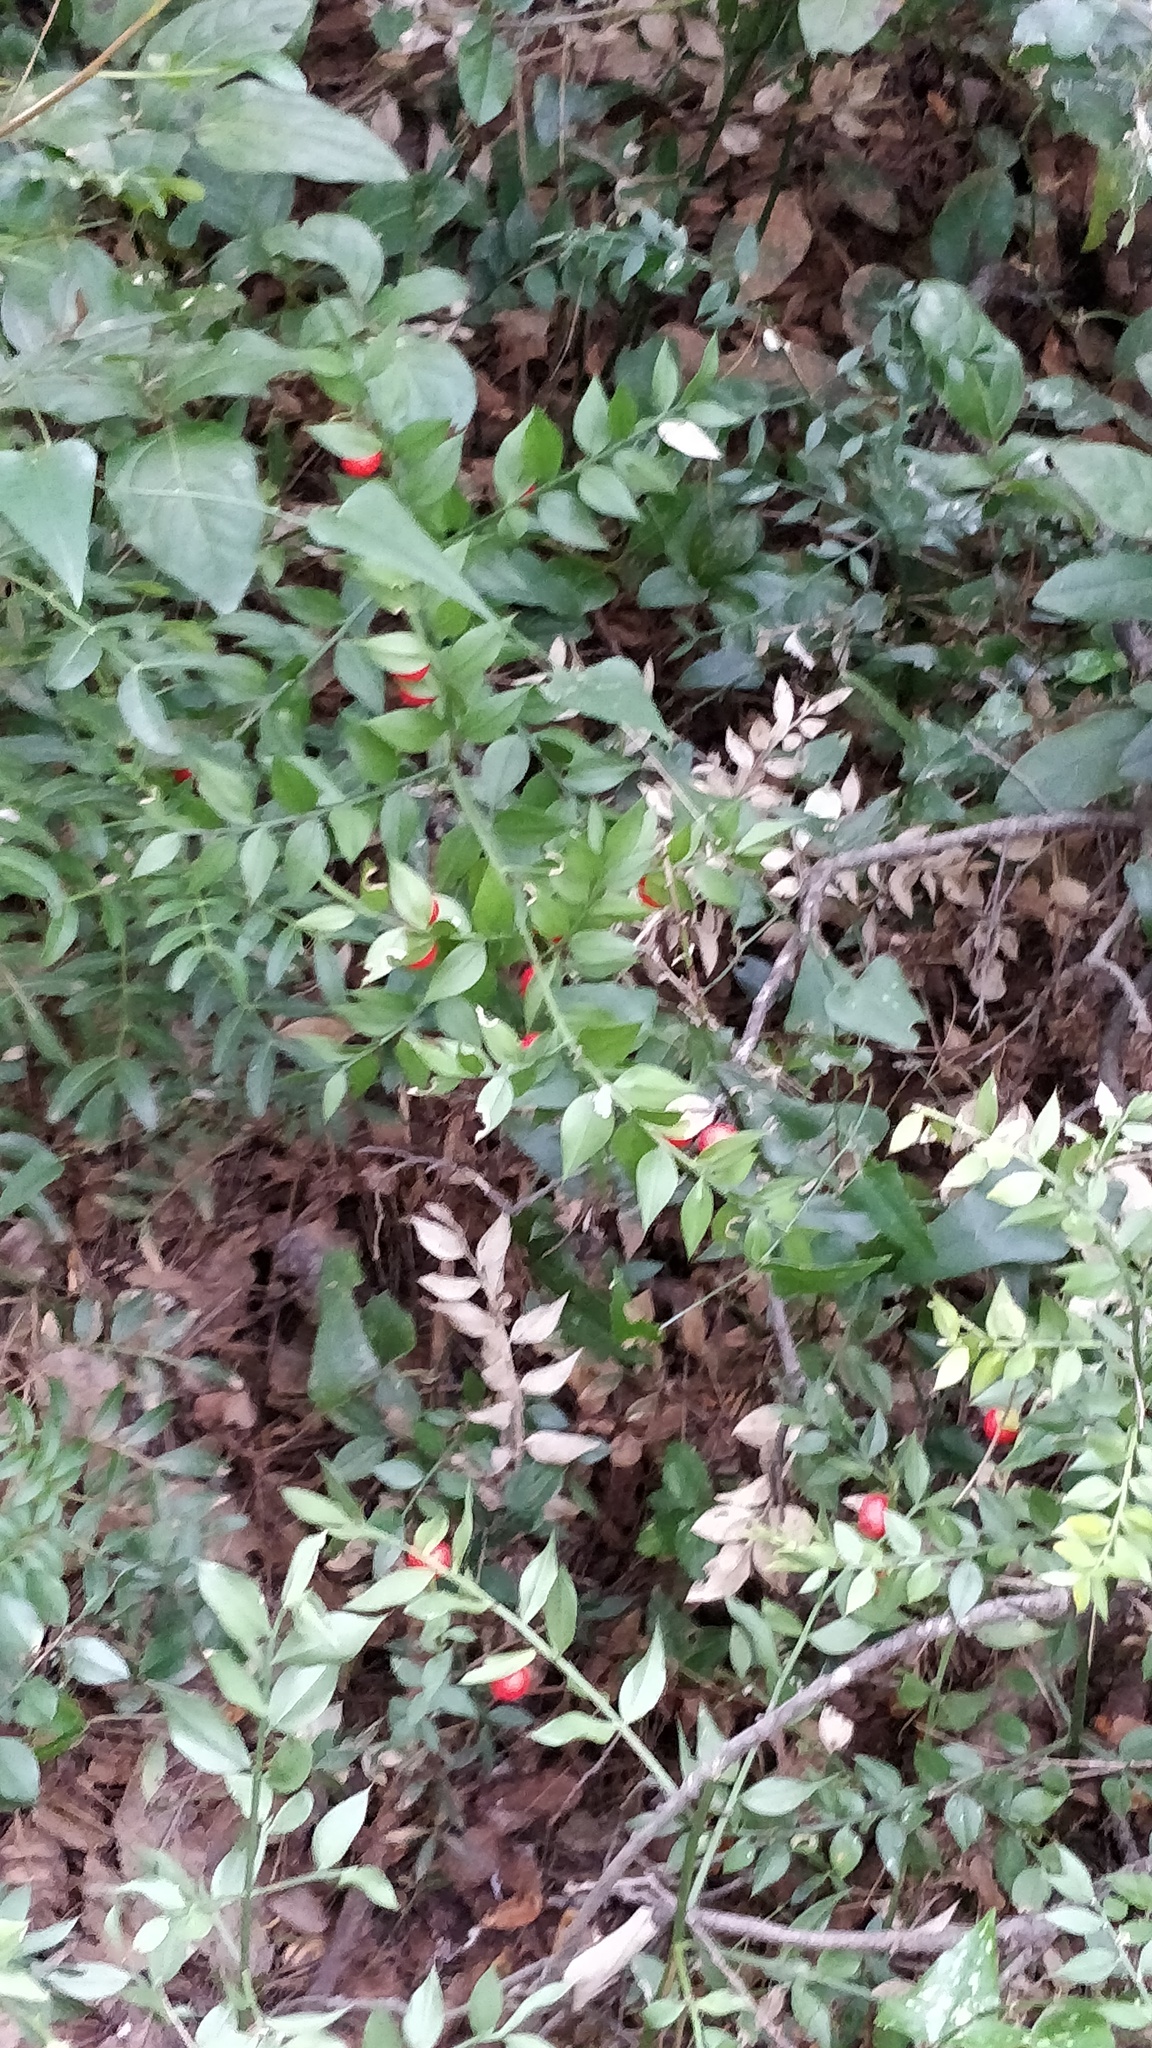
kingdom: Plantae
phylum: Tracheophyta
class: Liliopsida
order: Asparagales
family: Asparagaceae
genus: Ruscus
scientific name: Ruscus aculeatus
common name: Butcher's-broom
